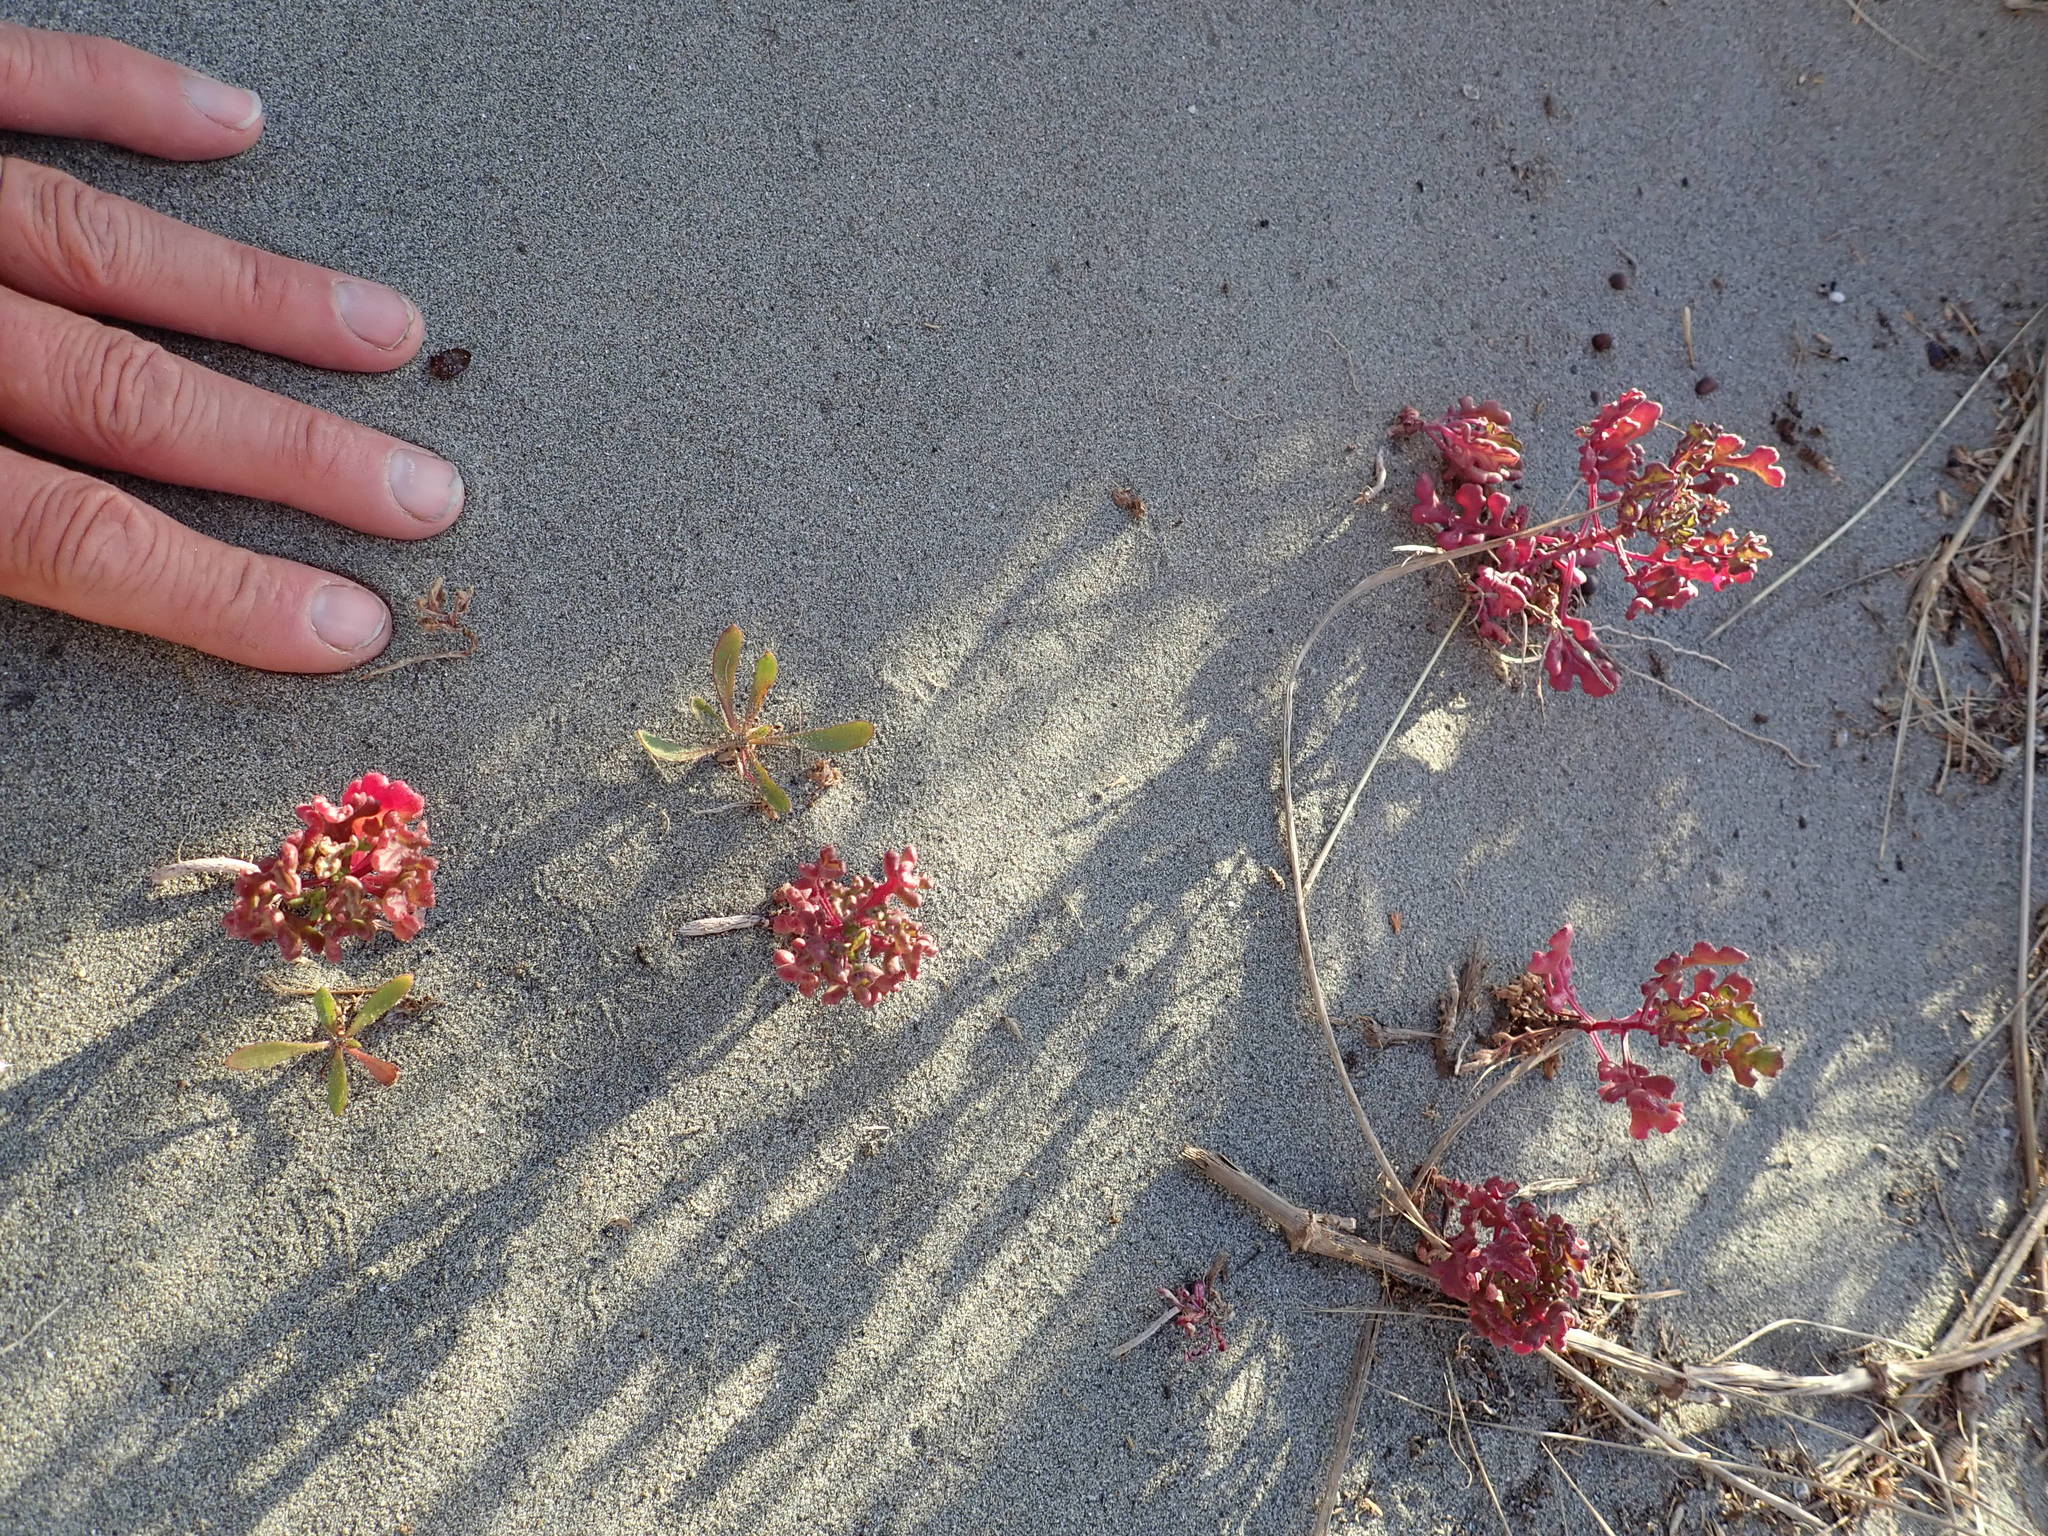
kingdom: Plantae
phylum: Tracheophyta
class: Magnoliopsida
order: Asterales
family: Asteraceae
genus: Senecio
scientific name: Senecio elegans
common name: Purple groundsel
